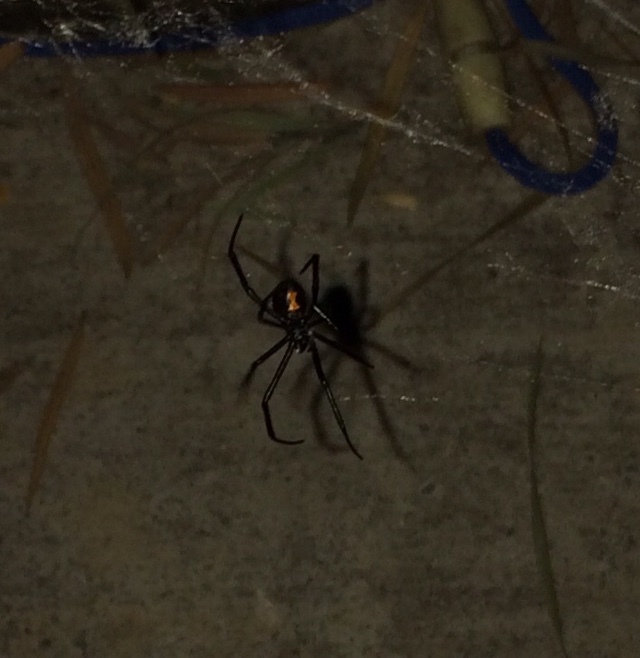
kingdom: Animalia
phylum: Arthropoda
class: Arachnida
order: Araneae
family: Theridiidae
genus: Latrodectus
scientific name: Latrodectus hesperus
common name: Western black widow
